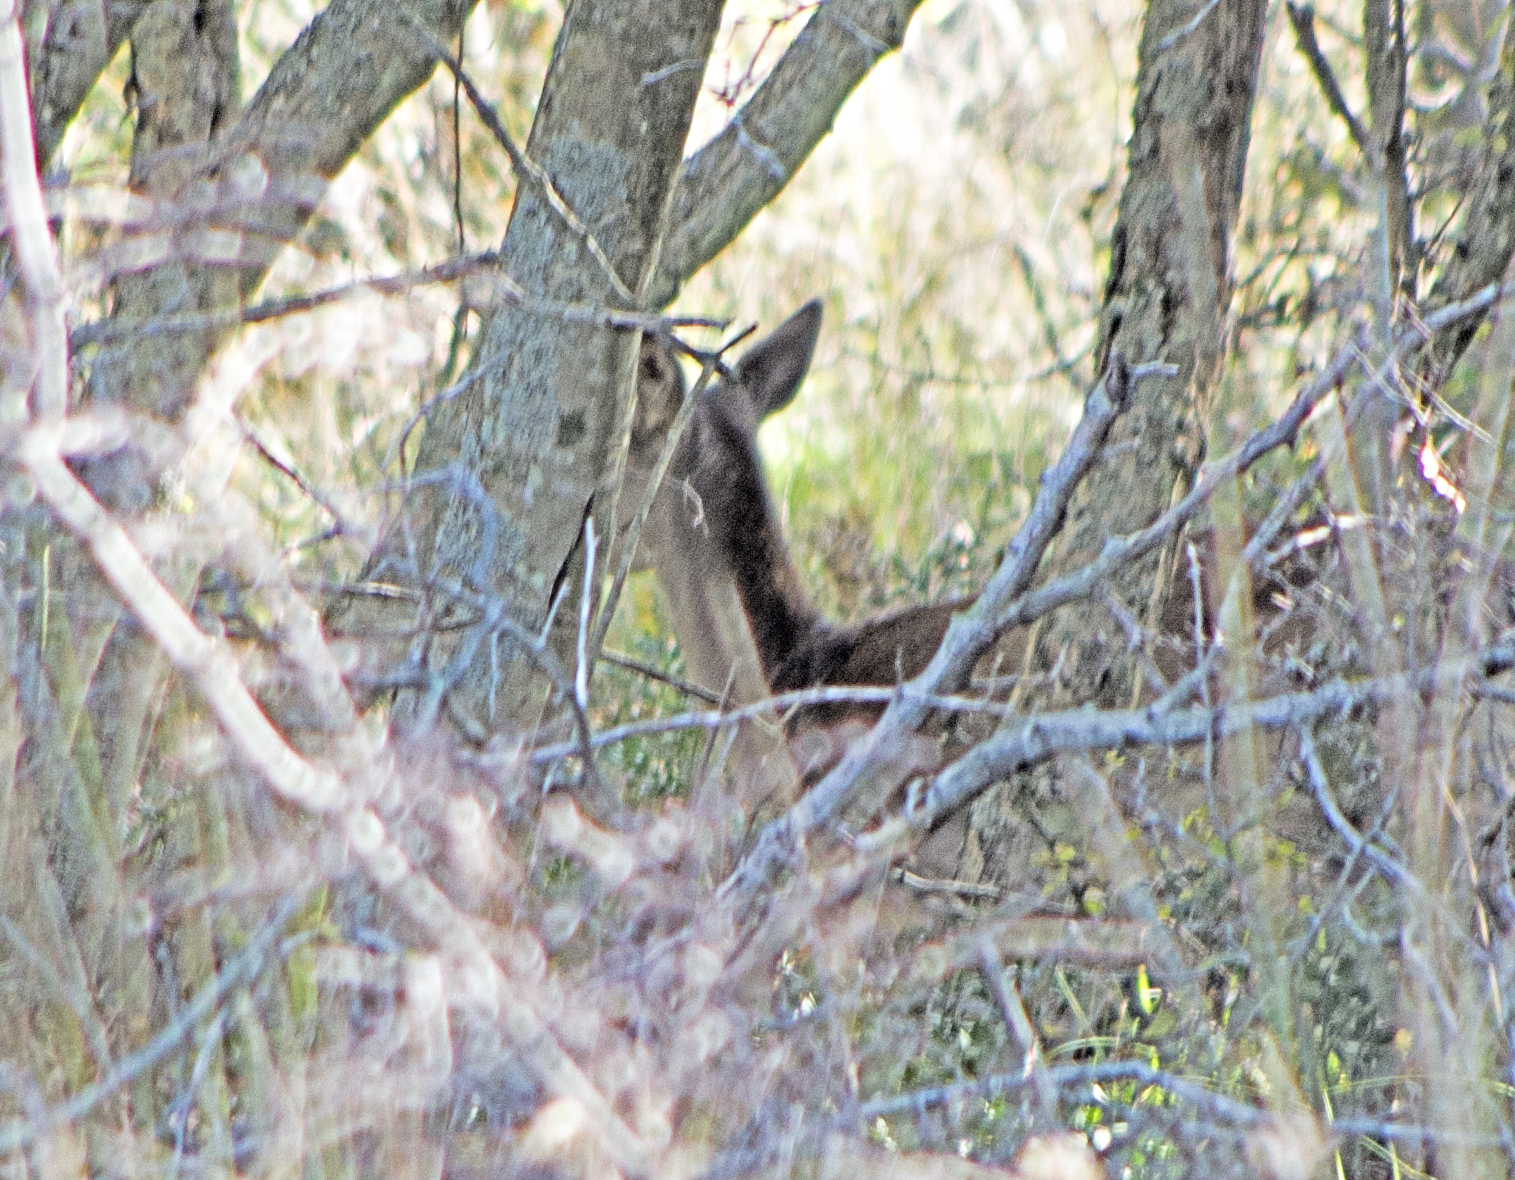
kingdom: Animalia
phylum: Chordata
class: Mammalia
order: Artiodactyla
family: Cervidae
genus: Dama
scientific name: Dama dama
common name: Fallow deer
